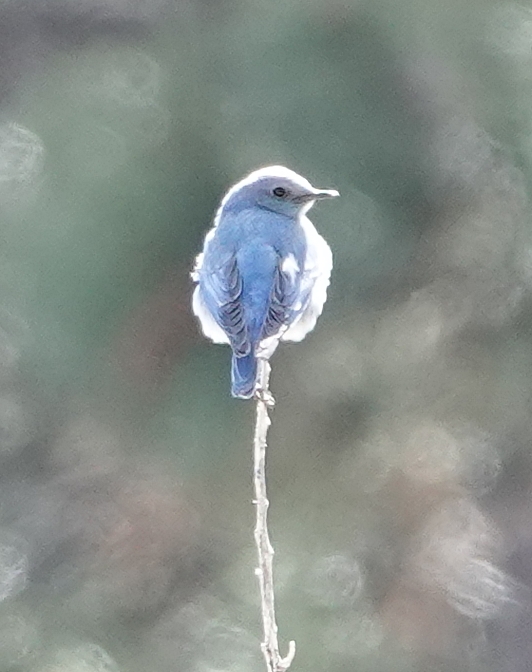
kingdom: Animalia
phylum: Chordata
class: Aves
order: Passeriformes
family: Turdidae
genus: Sialia
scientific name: Sialia currucoides
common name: Mountain bluebird
